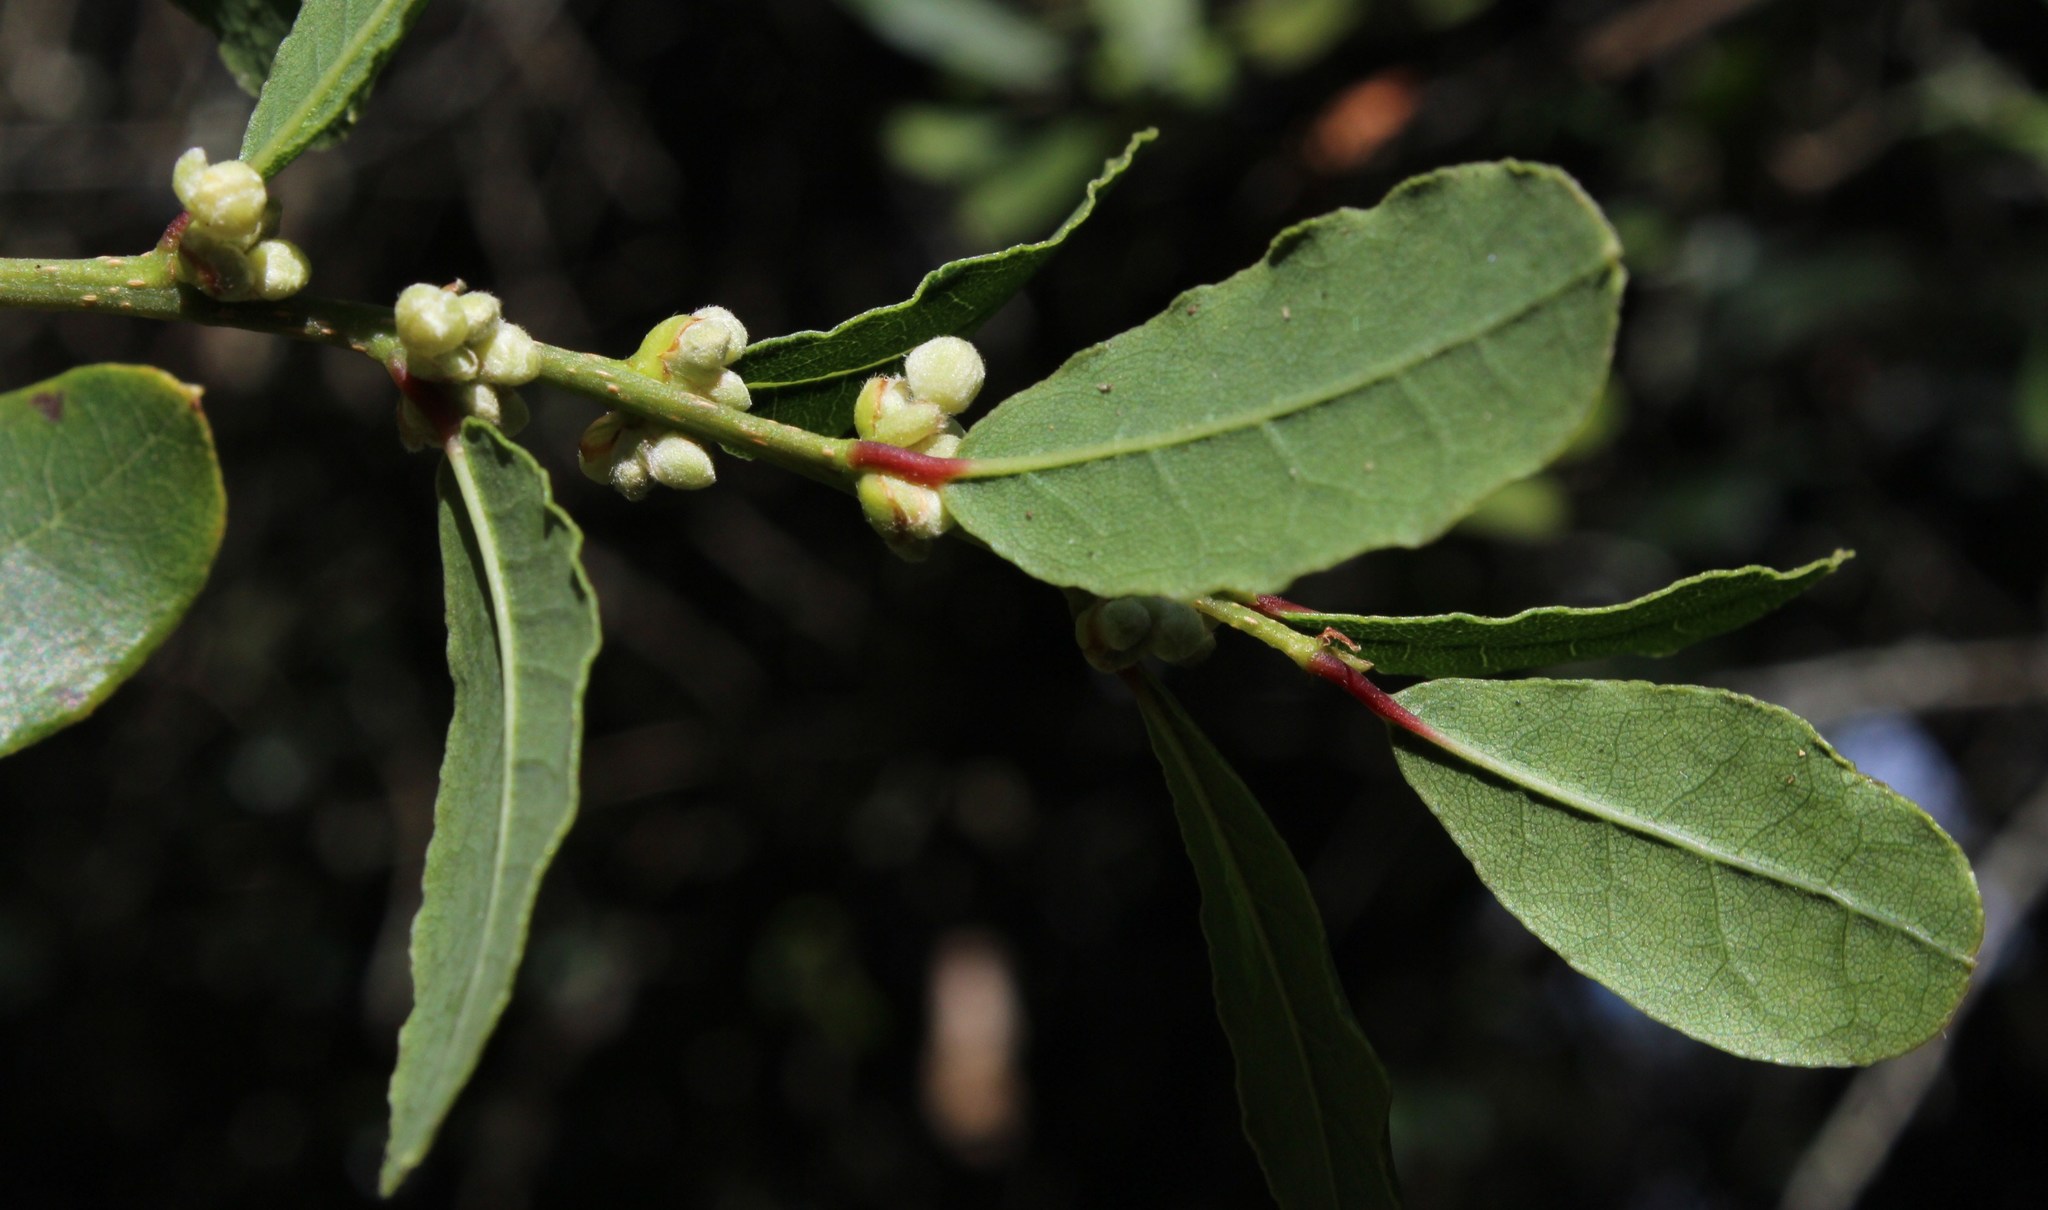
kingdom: Plantae
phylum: Tracheophyta
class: Magnoliopsida
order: Malpighiales
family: Phyllanthaceae
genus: Lachnostylis
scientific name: Lachnostylis hirta
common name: Coalwood
